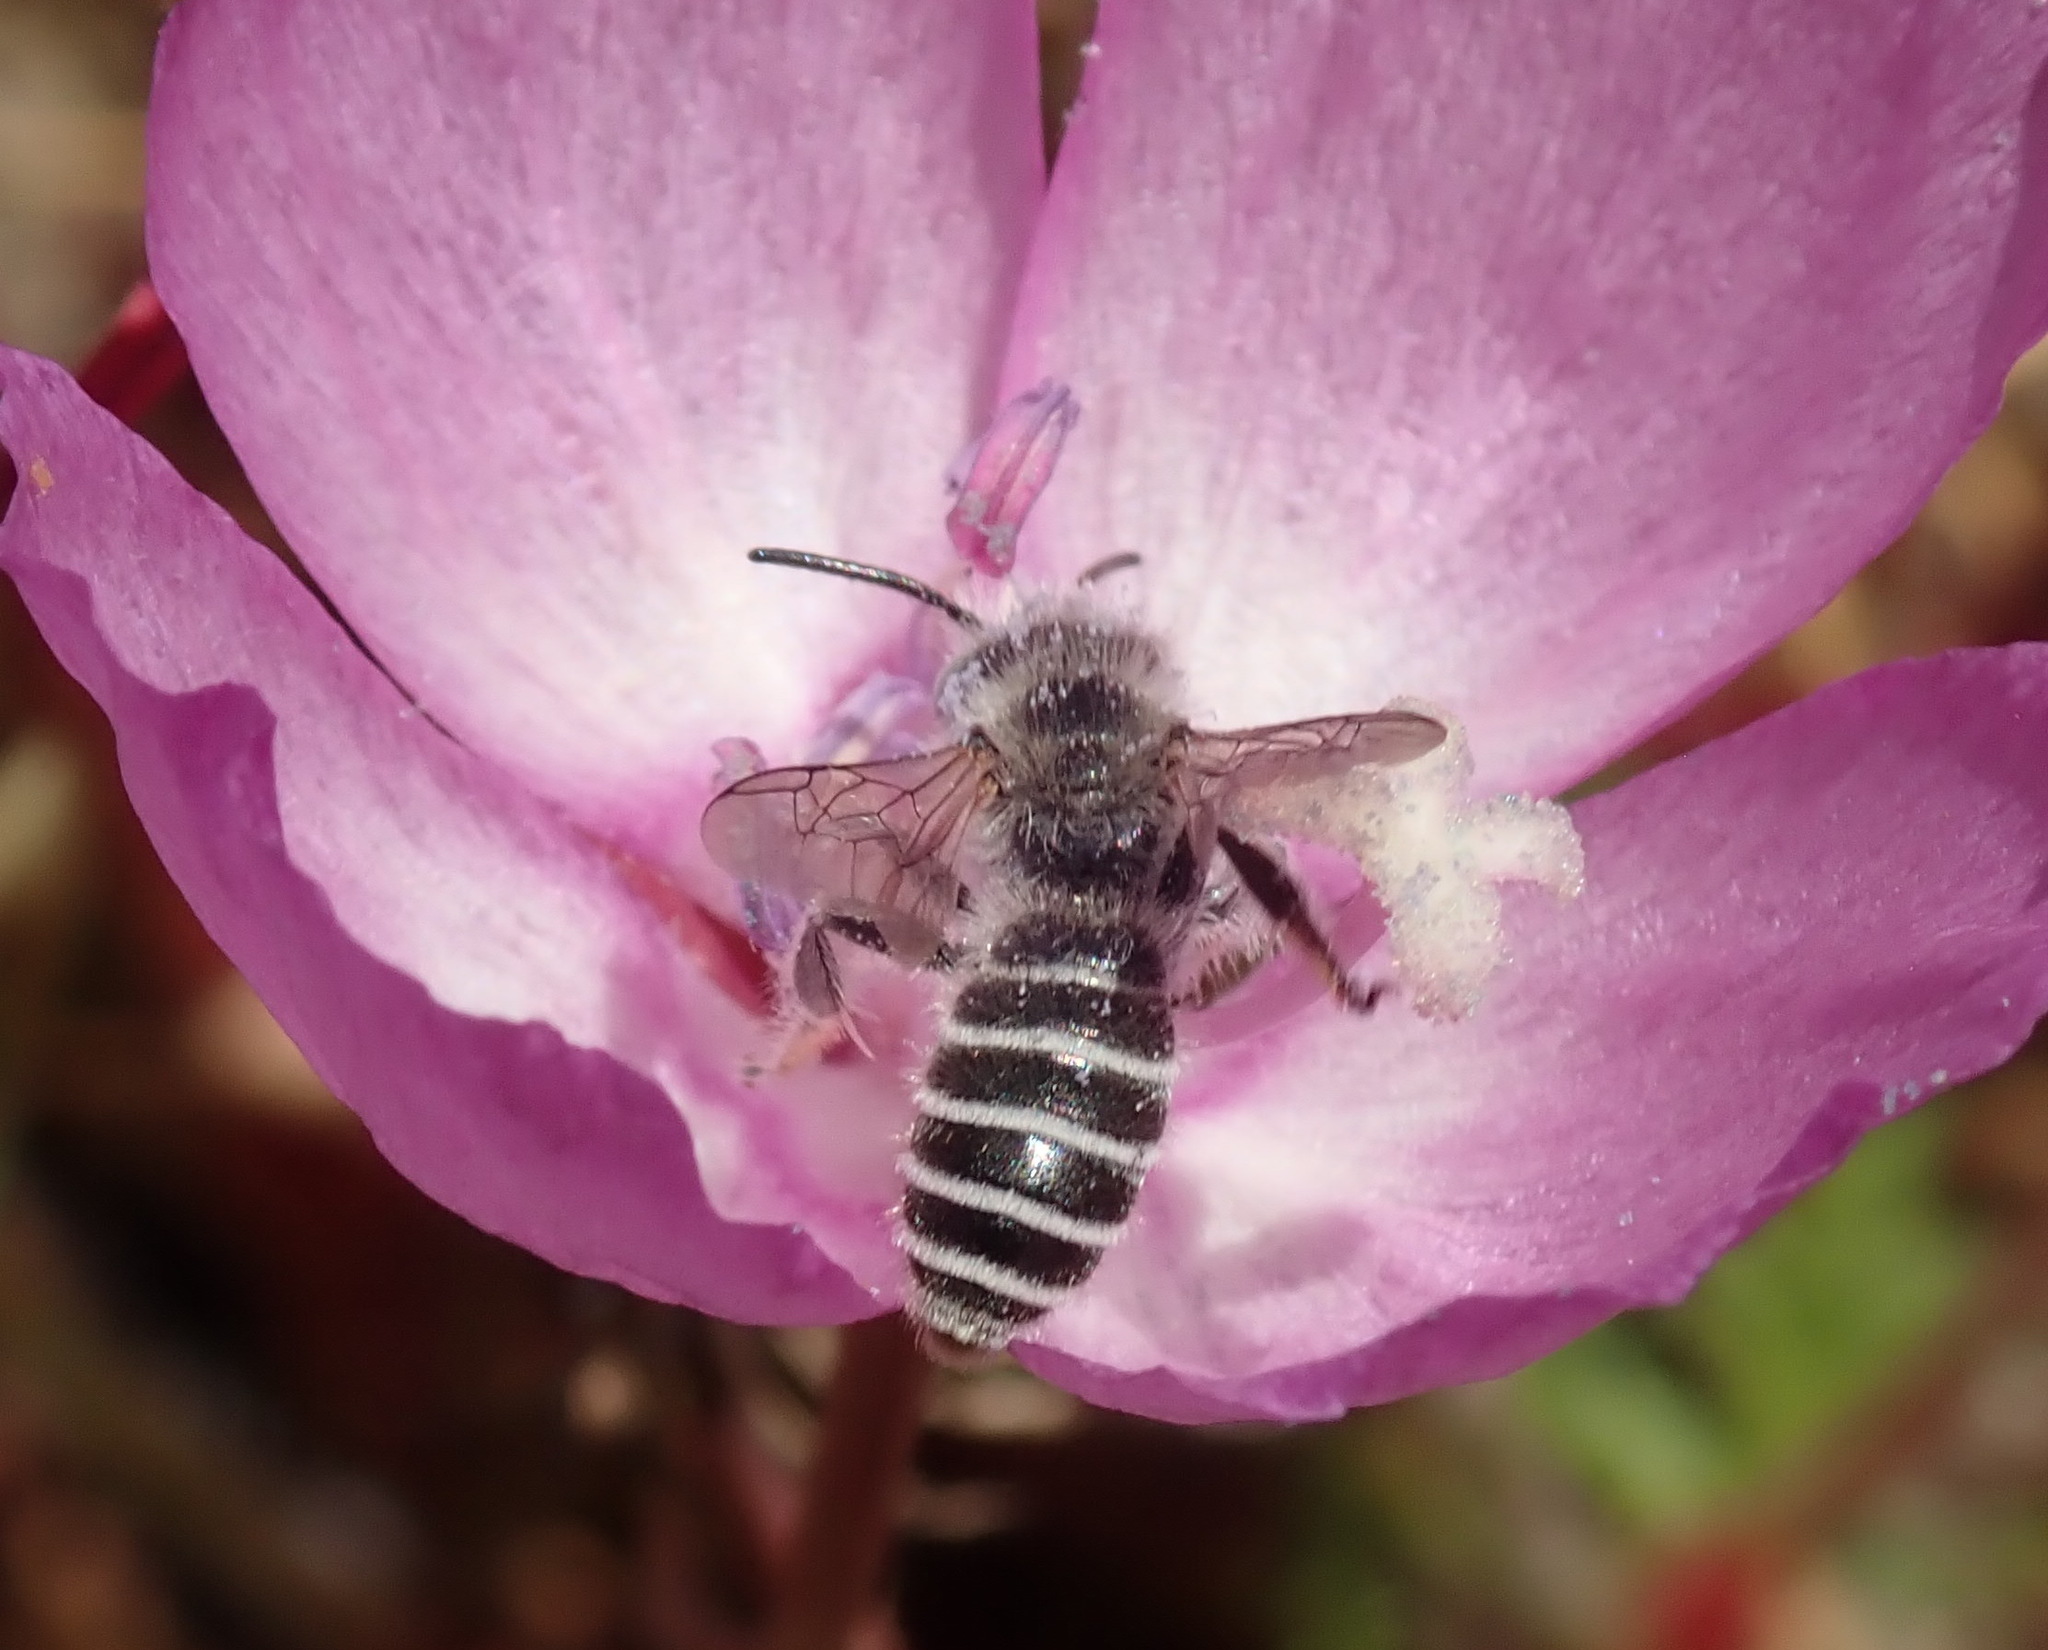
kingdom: Animalia
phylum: Arthropoda
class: Insecta
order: Hymenoptera
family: Melittidae
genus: Hesperapis
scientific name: Hesperapis regularis
